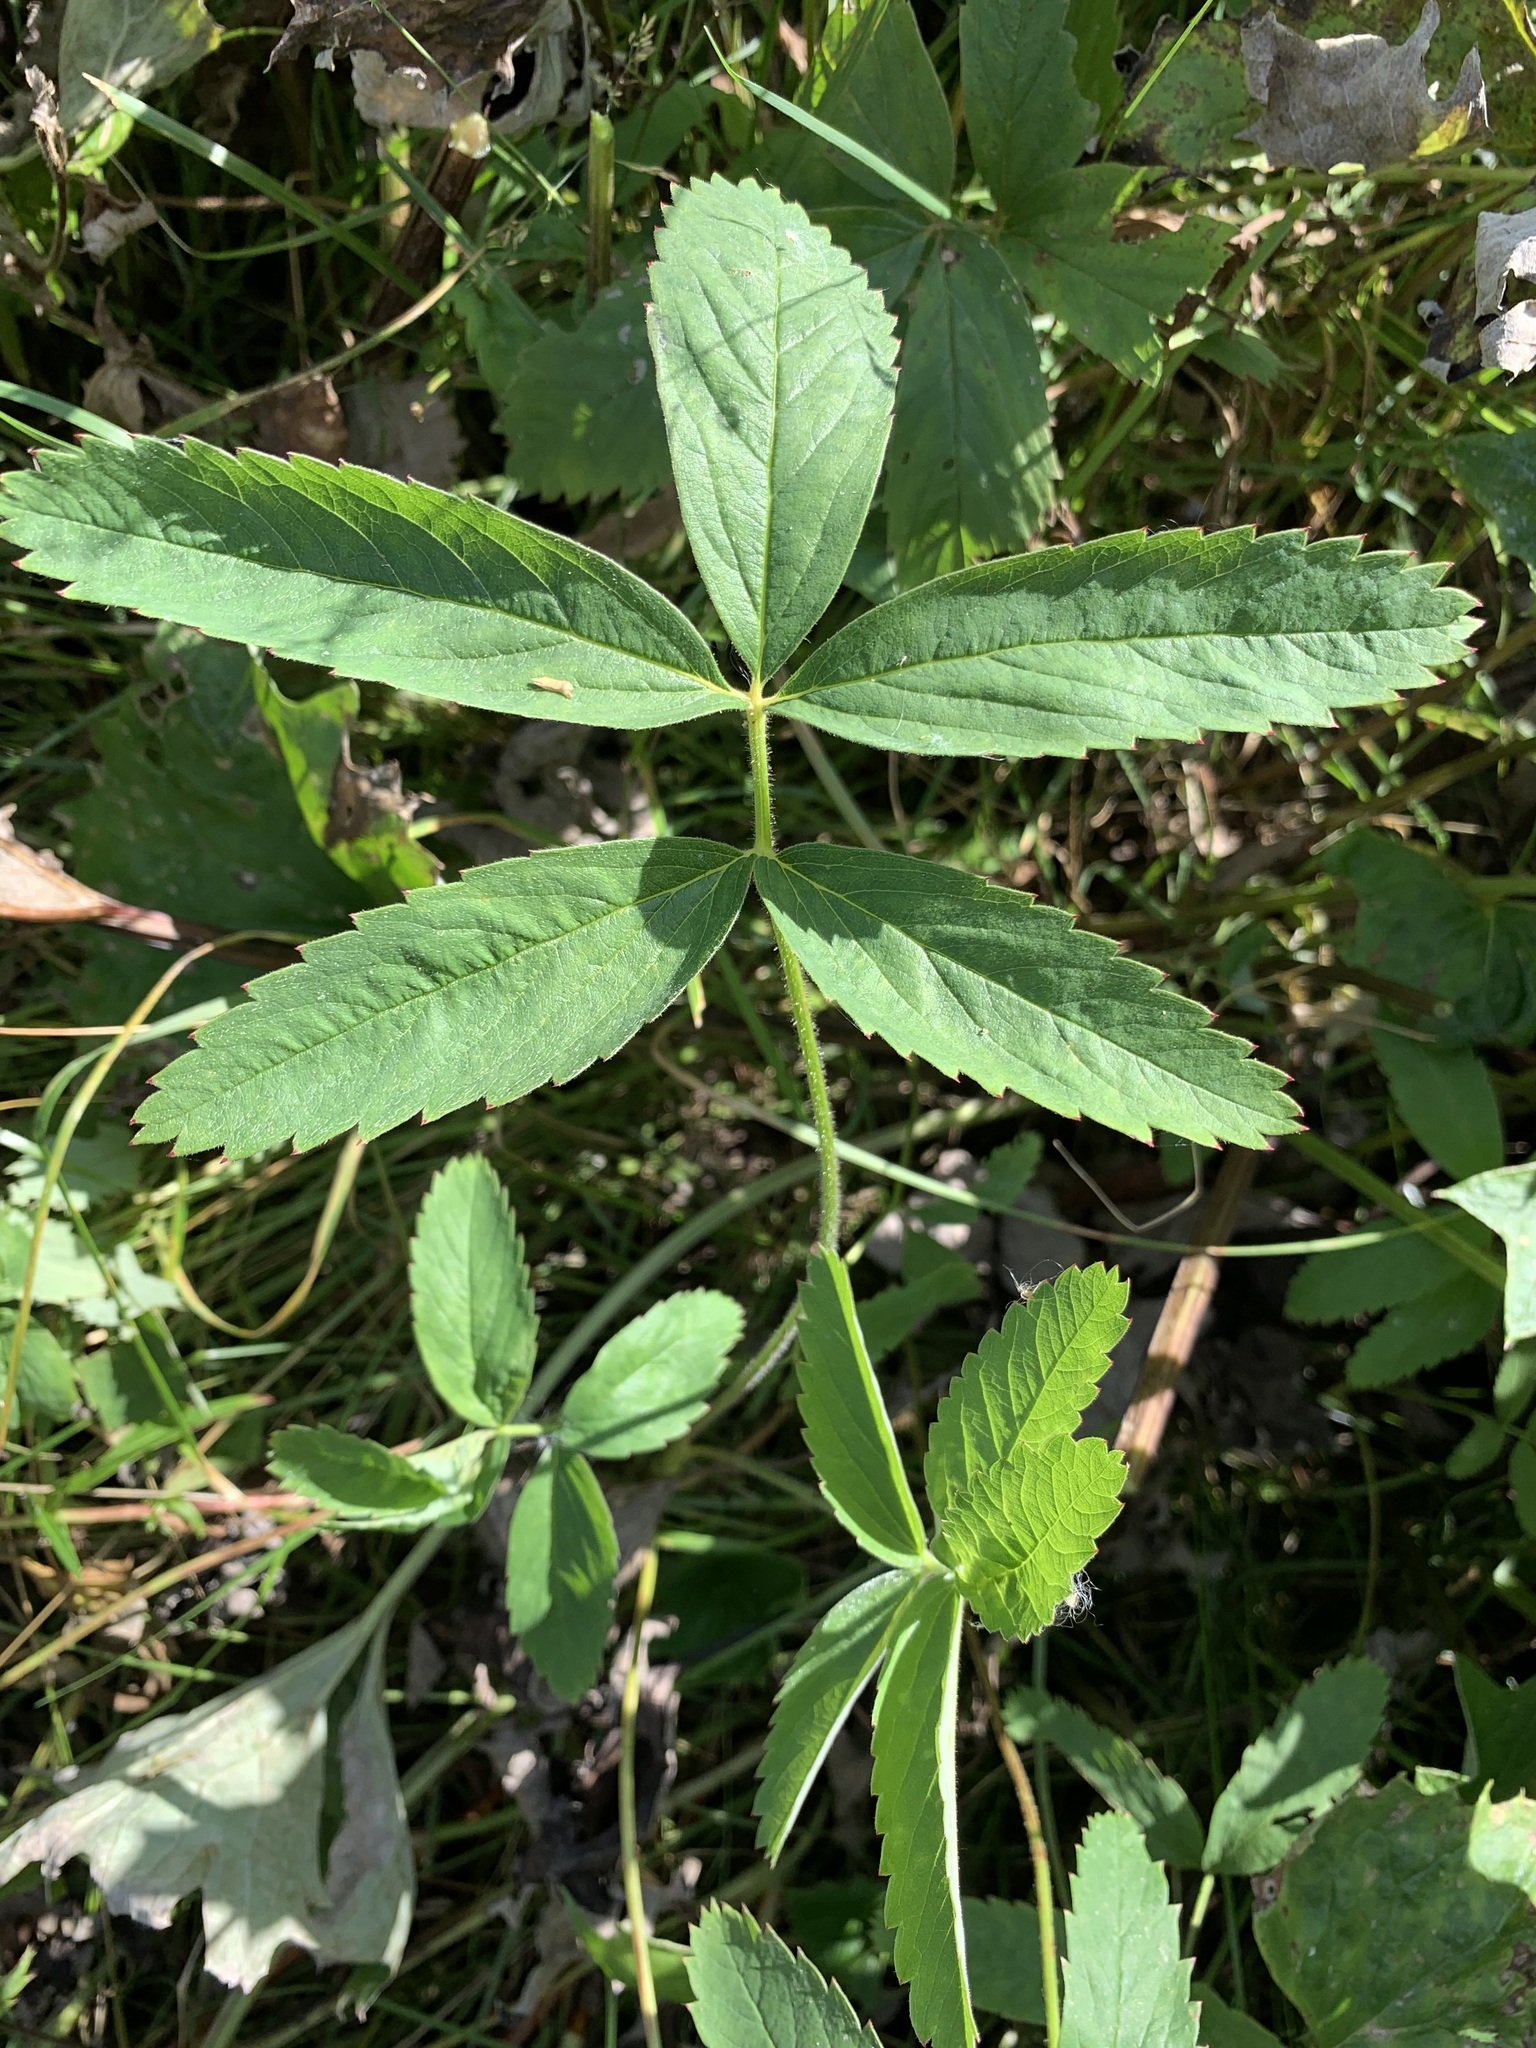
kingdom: Plantae
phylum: Tracheophyta
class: Magnoliopsida
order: Rosales
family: Rosaceae
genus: Comarum
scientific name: Comarum palustre
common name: Marsh cinquefoil
